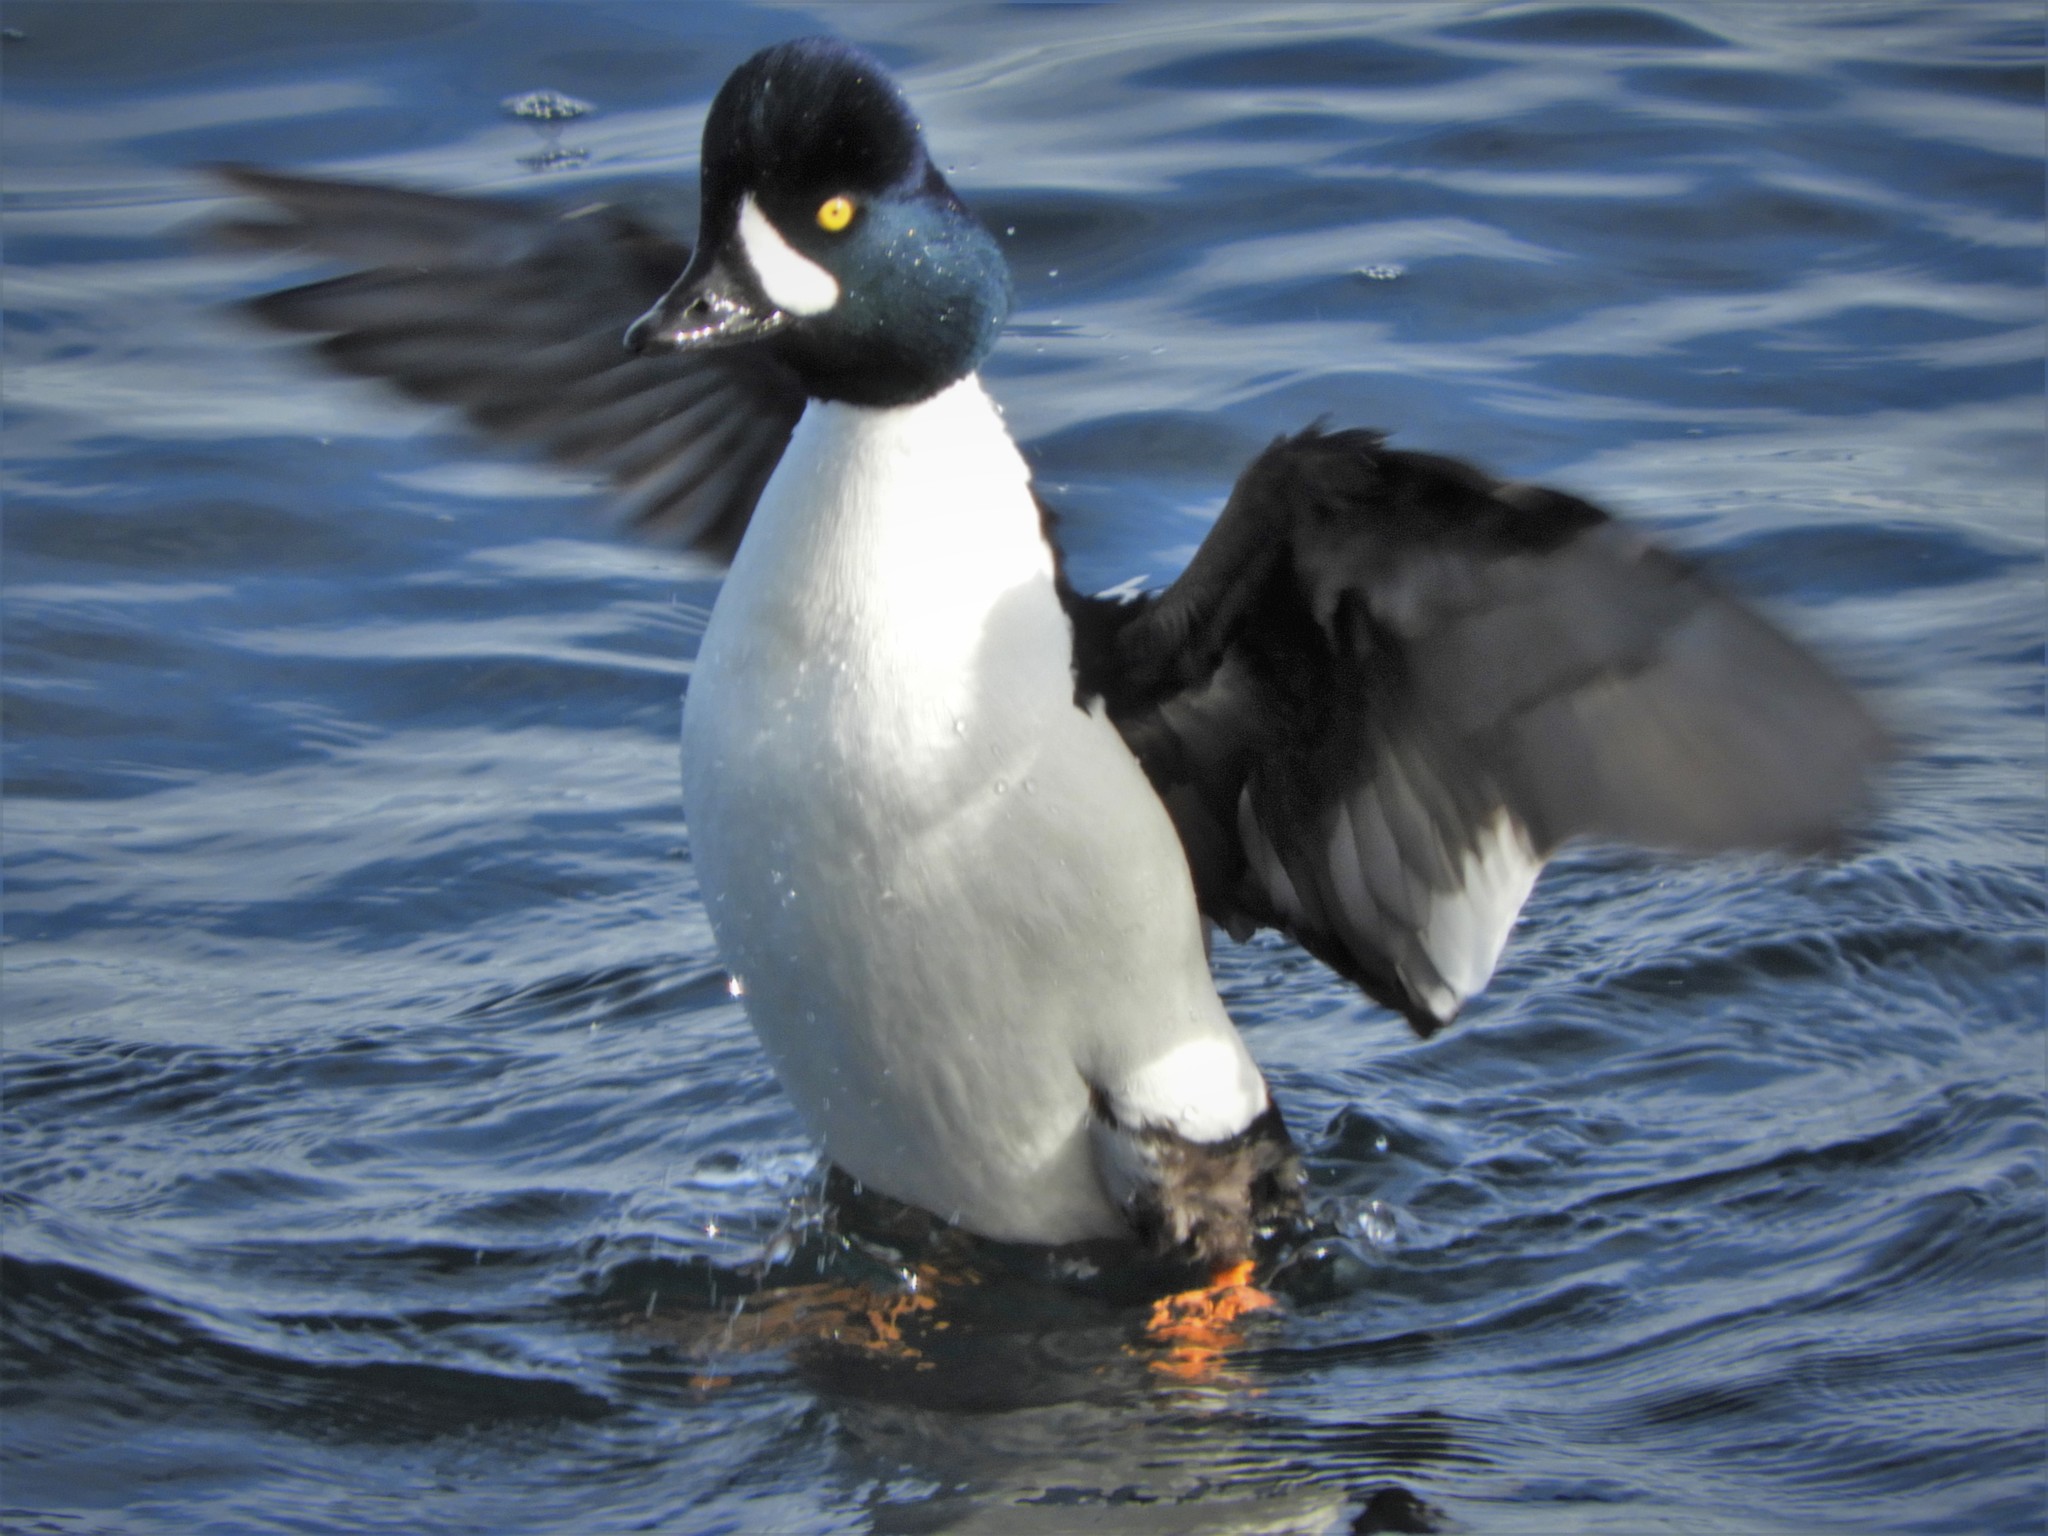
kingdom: Animalia
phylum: Chordata
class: Aves
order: Anseriformes
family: Anatidae
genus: Bucephala
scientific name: Bucephala islandica
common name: Barrow's goldeneye
